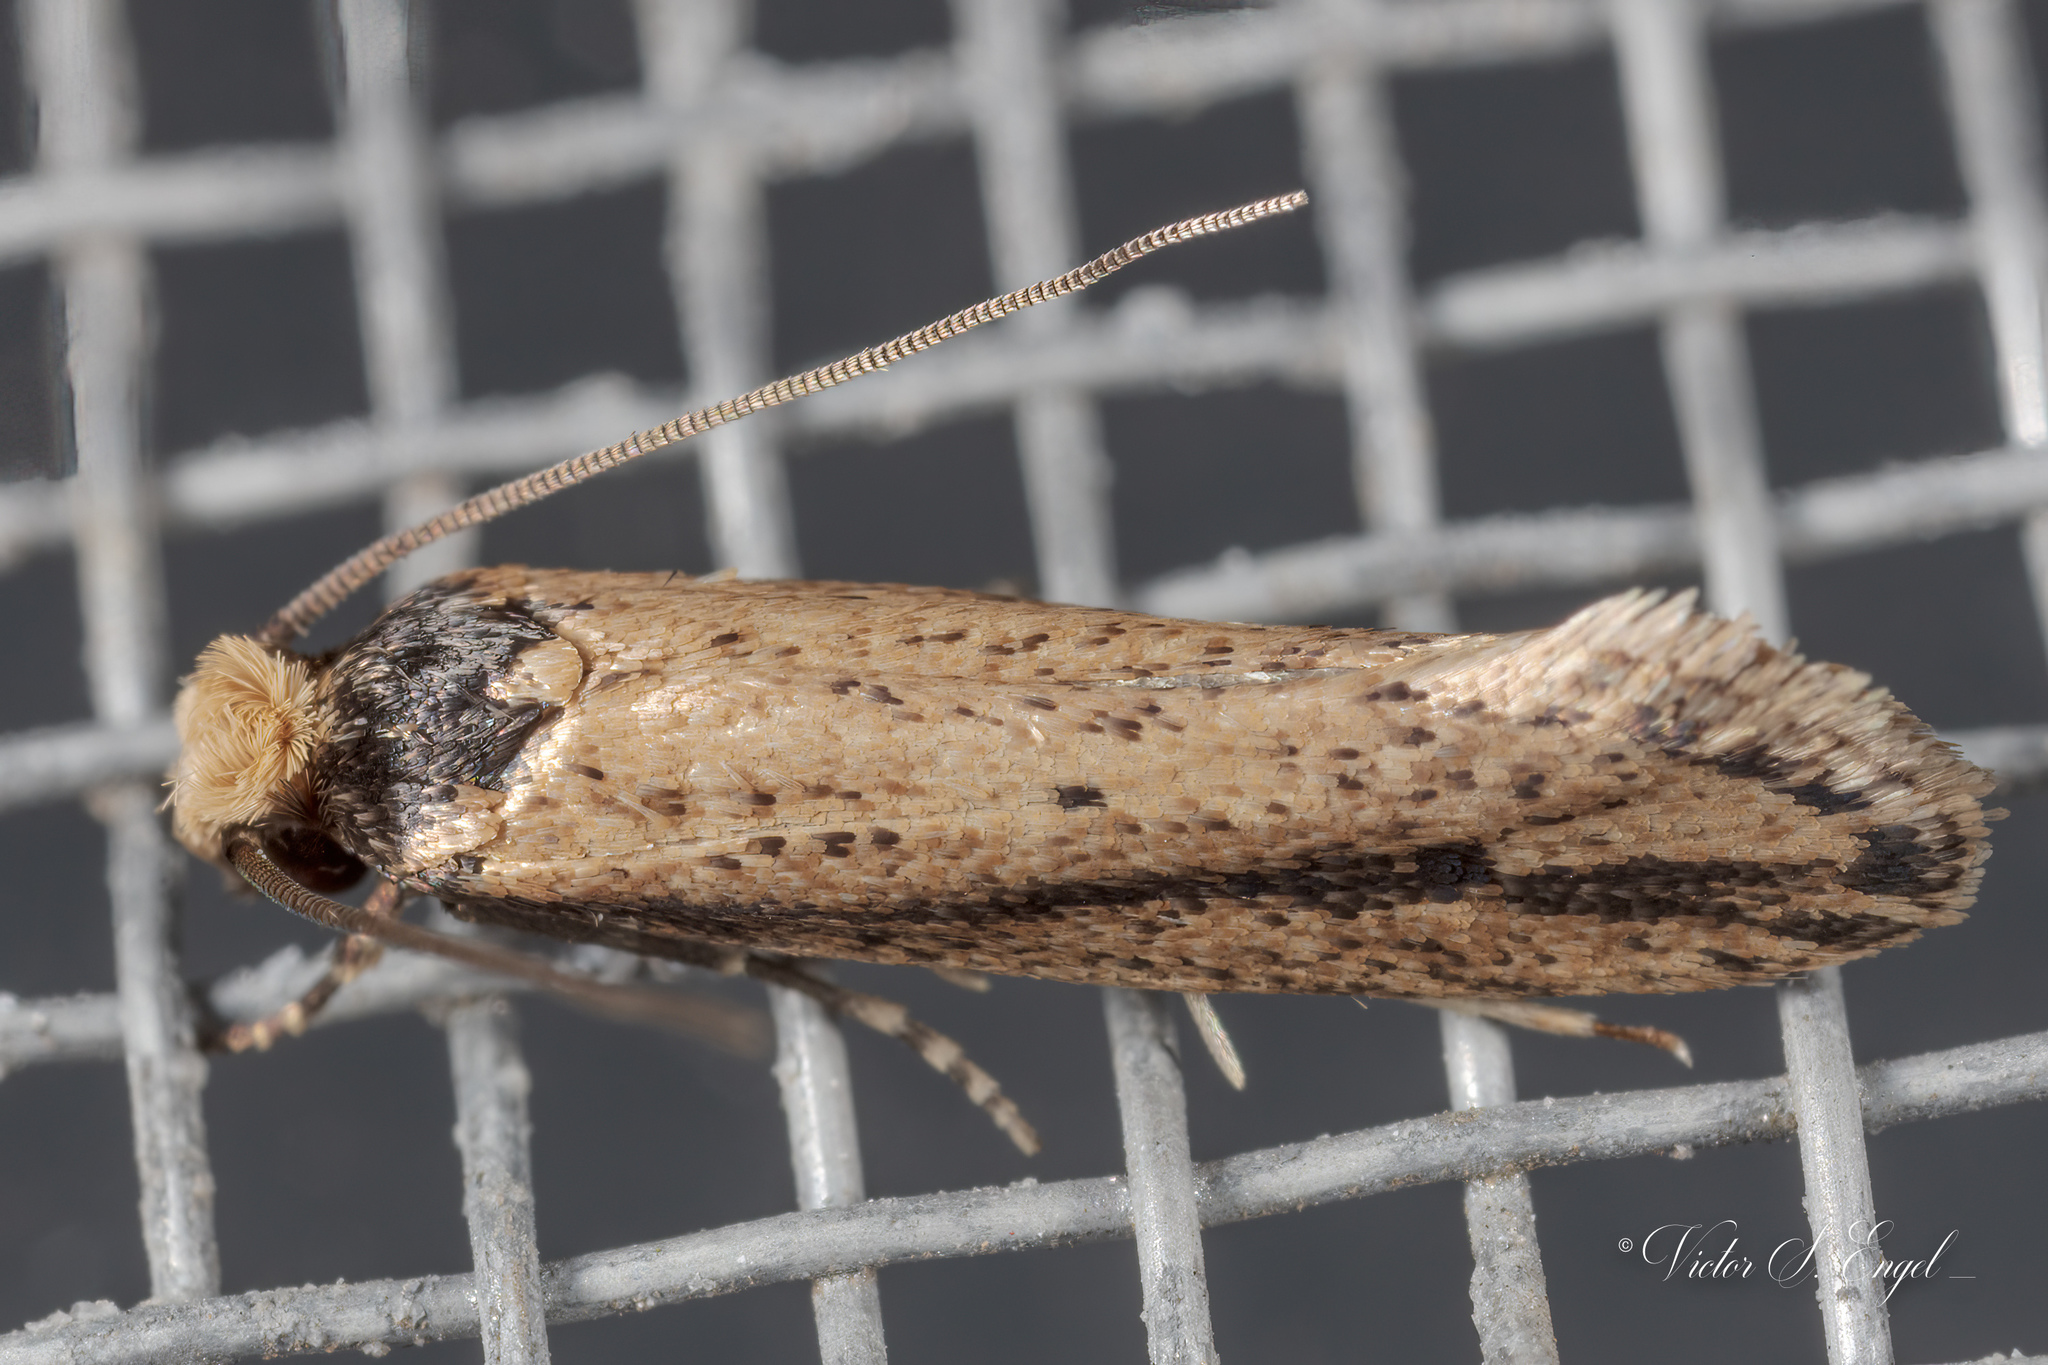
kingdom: Animalia
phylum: Arthropoda
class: Insecta
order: Lepidoptera
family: Tineidae
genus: Tinea
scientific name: Tinea apicimaculella
